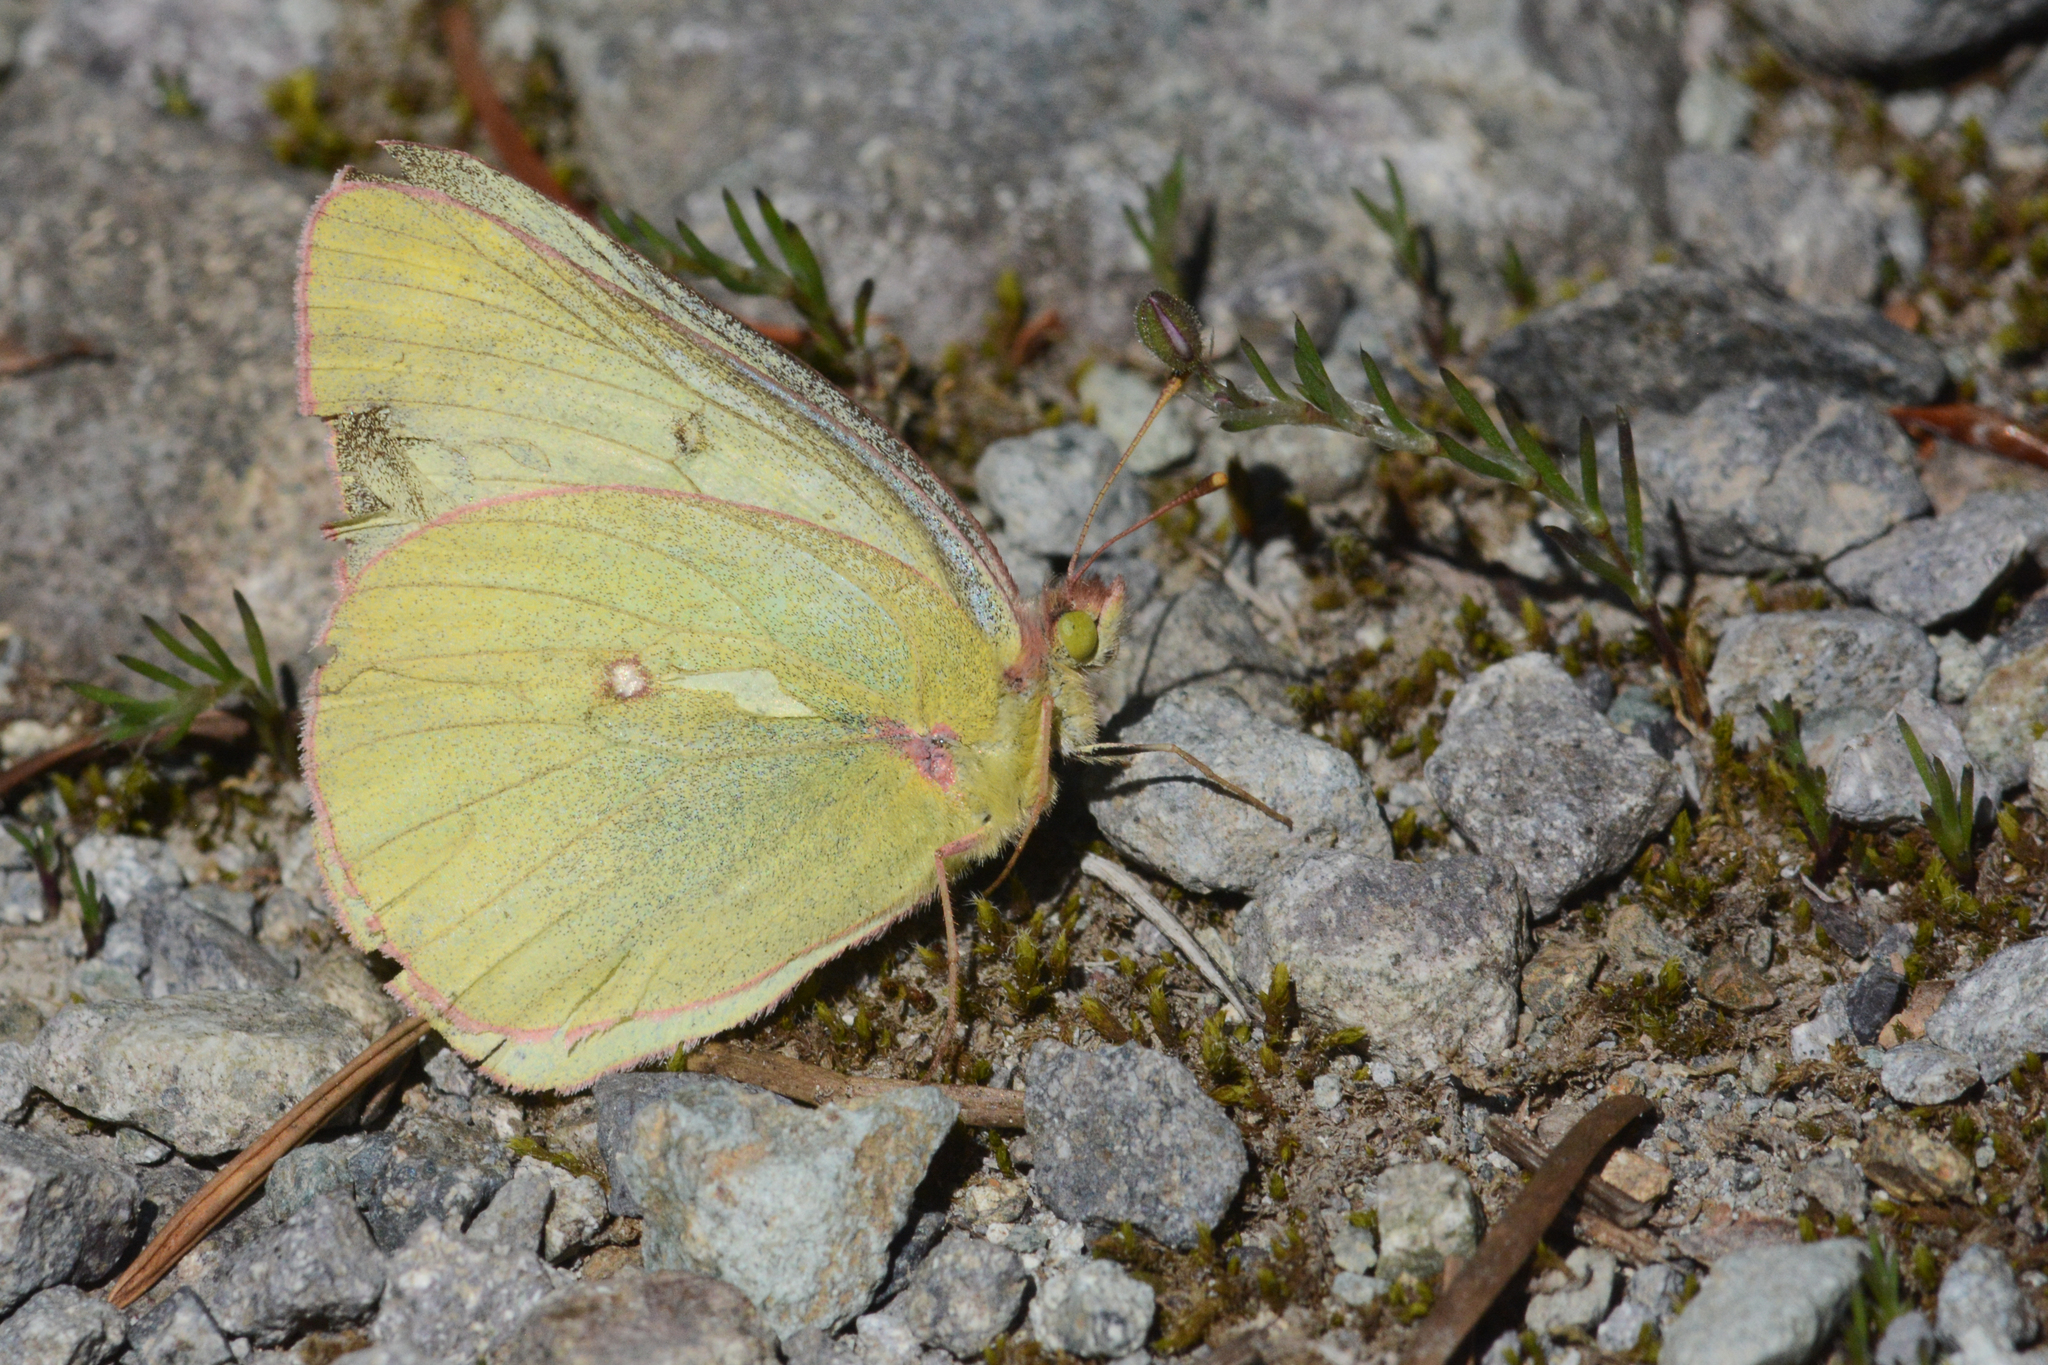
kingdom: Animalia
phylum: Arthropoda
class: Insecta
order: Lepidoptera
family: Pieridae
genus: Colias
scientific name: Colias occidentalis
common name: Western sulphur
